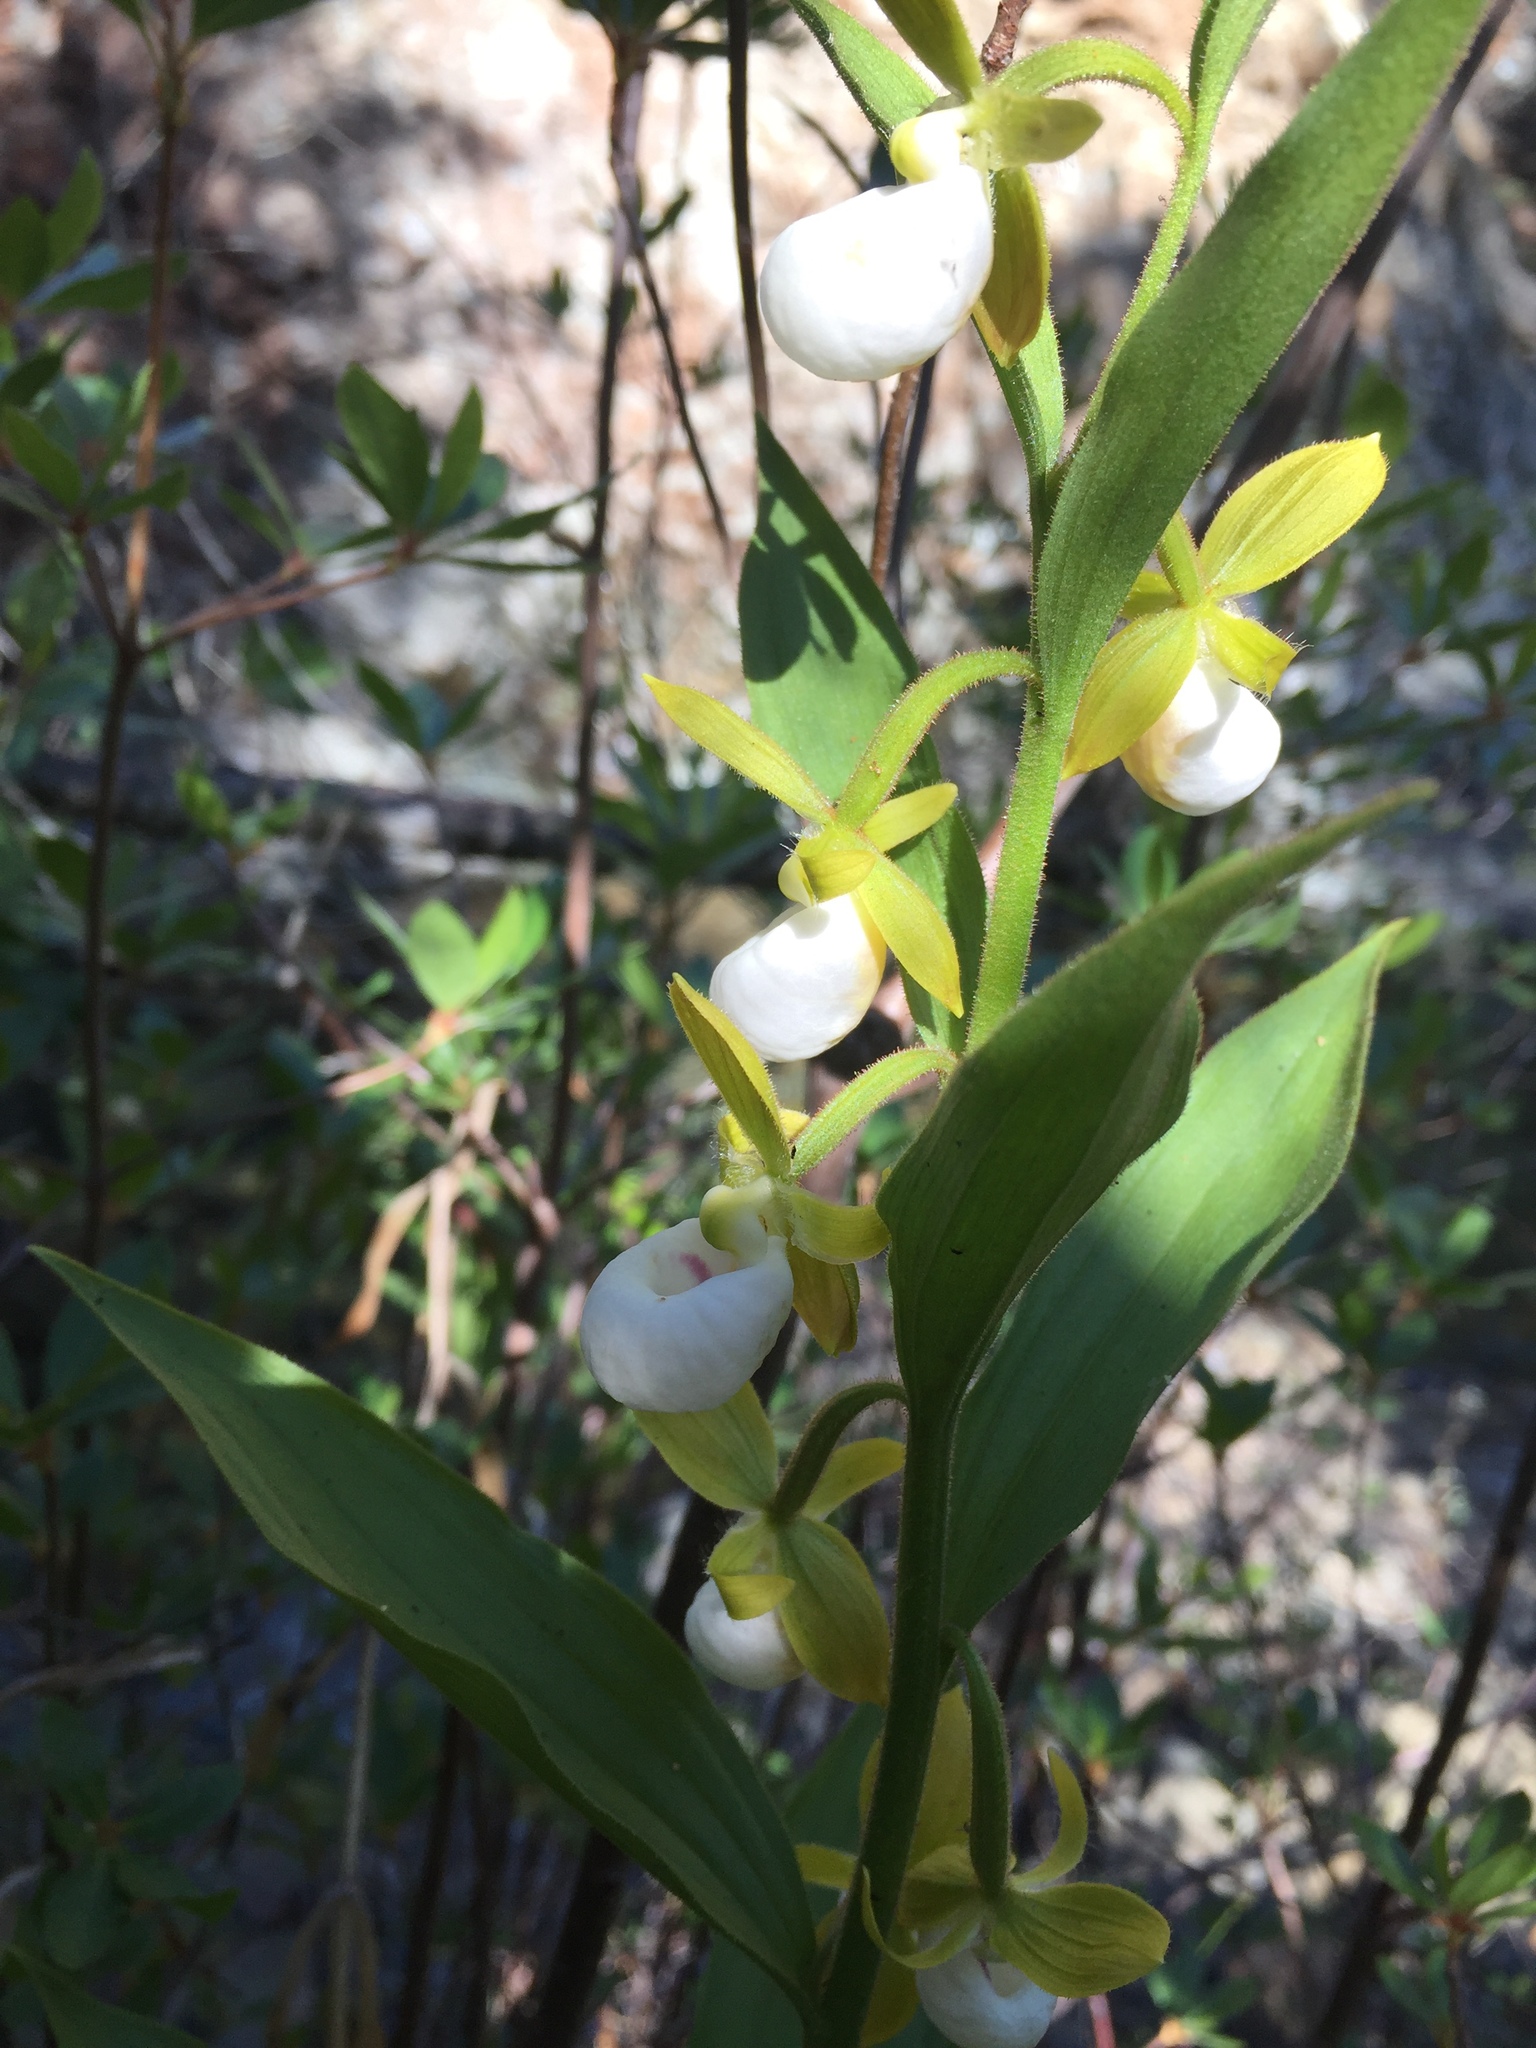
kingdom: Plantae
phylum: Tracheophyta
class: Liliopsida
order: Asparagales
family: Orchidaceae
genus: Cypripedium
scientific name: Cypripedium californicum
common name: California lady's slipper
